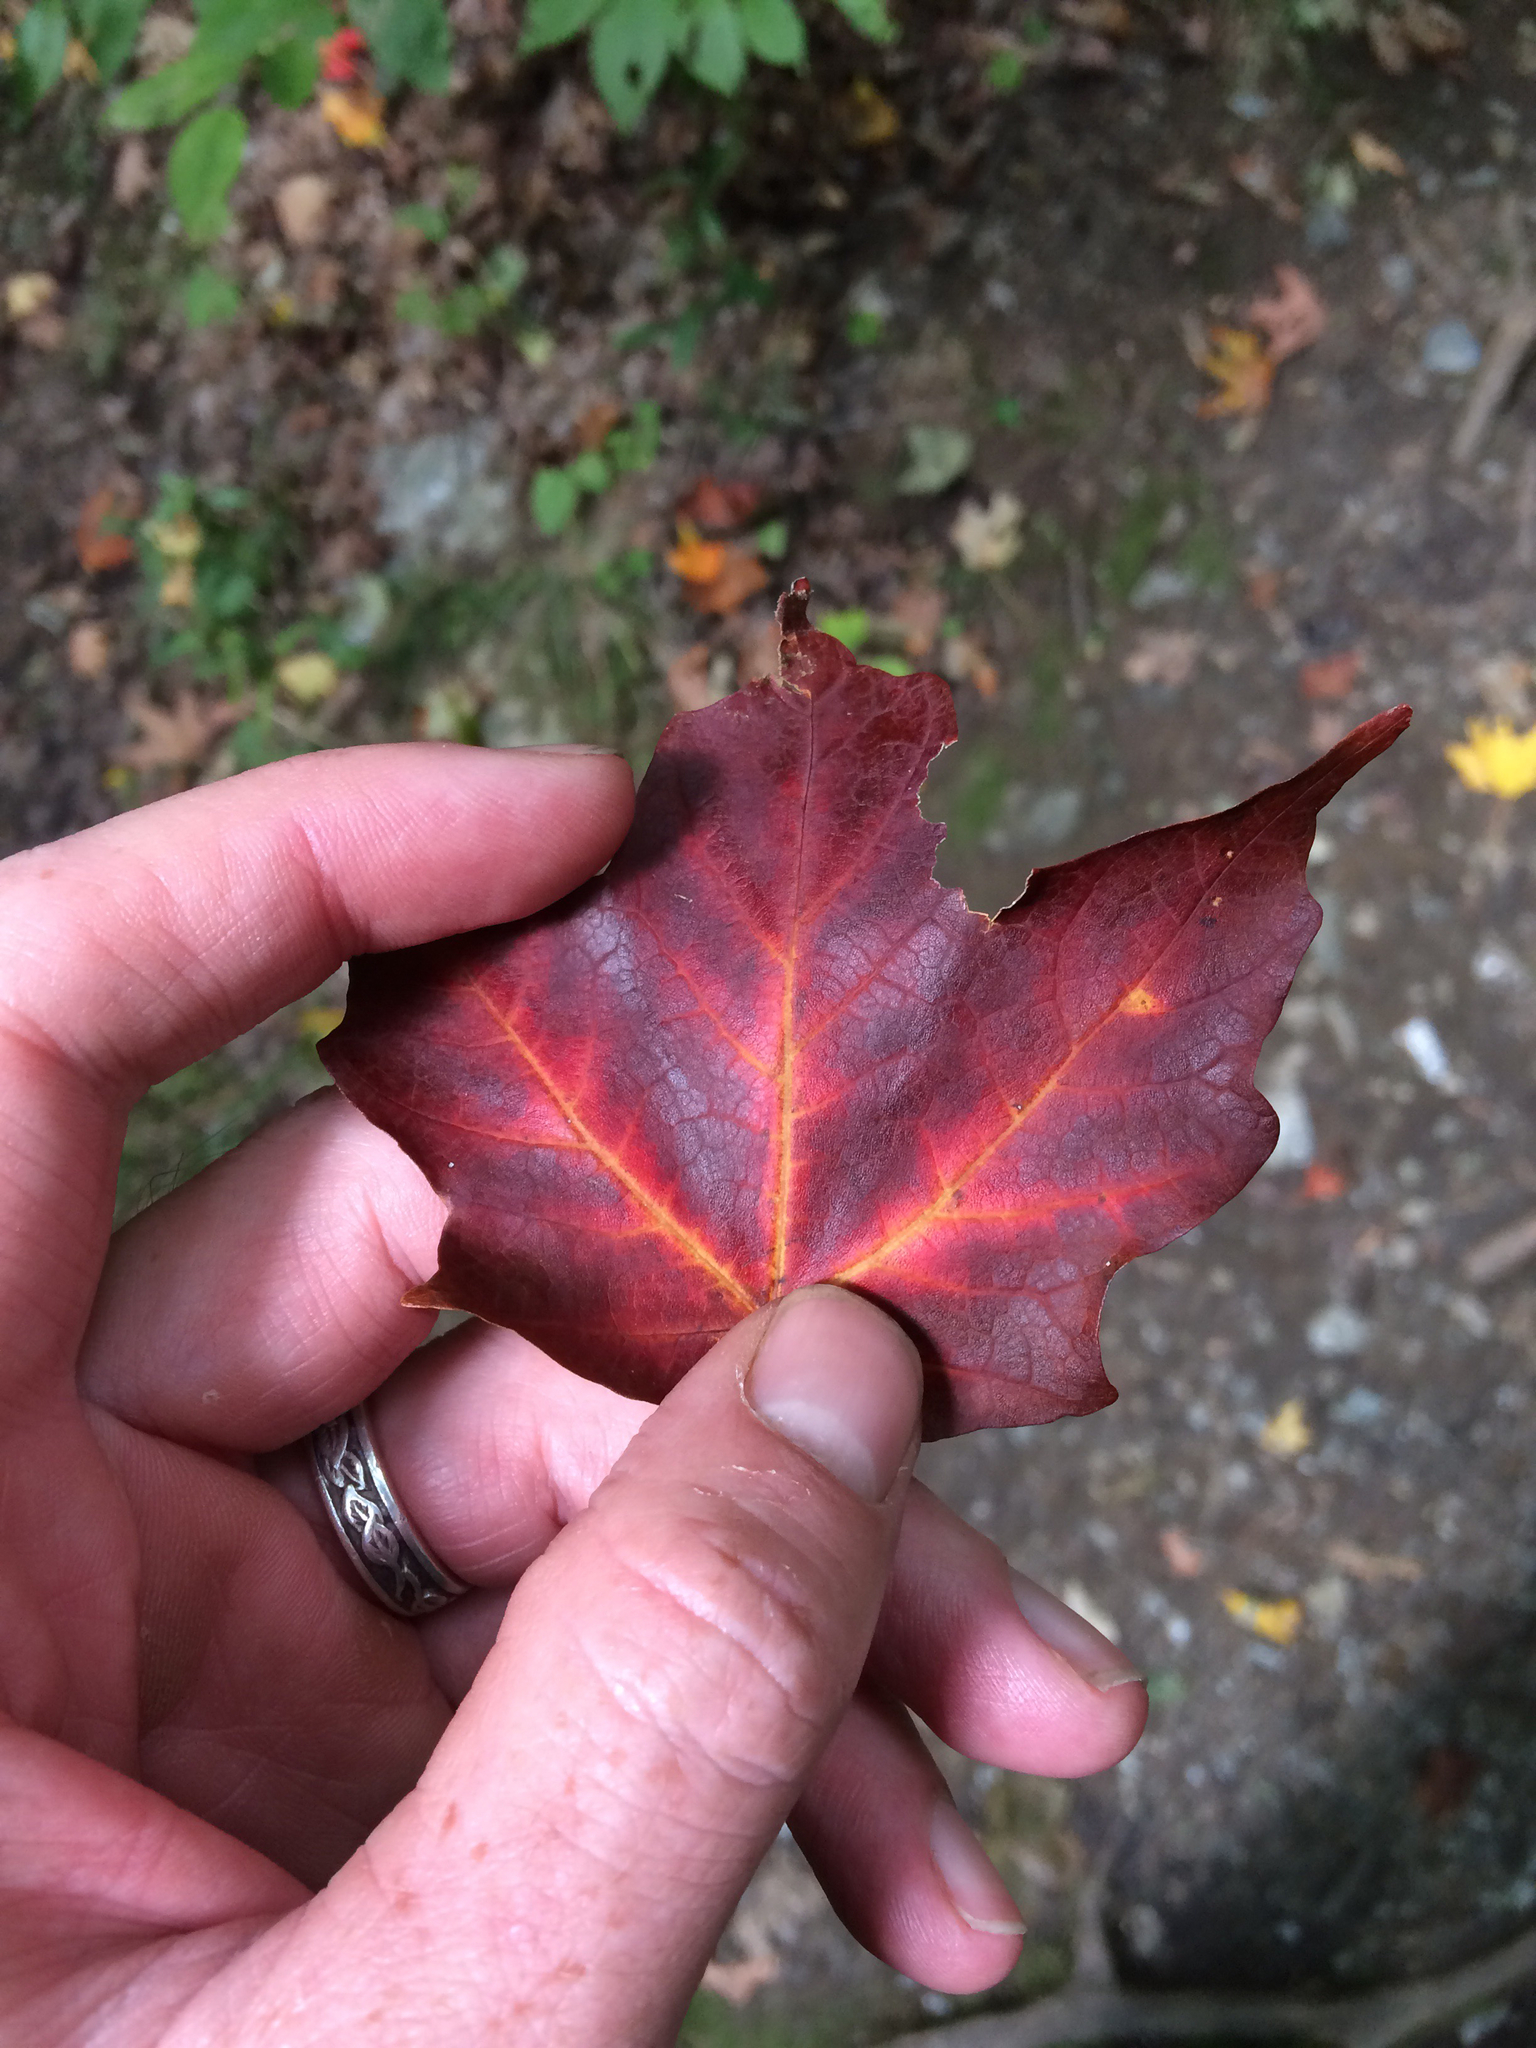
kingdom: Plantae
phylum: Tracheophyta
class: Magnoliopsida
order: Sapindales
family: Sapindaceae
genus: Acer
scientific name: Acer saccharum
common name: Sugar maple
